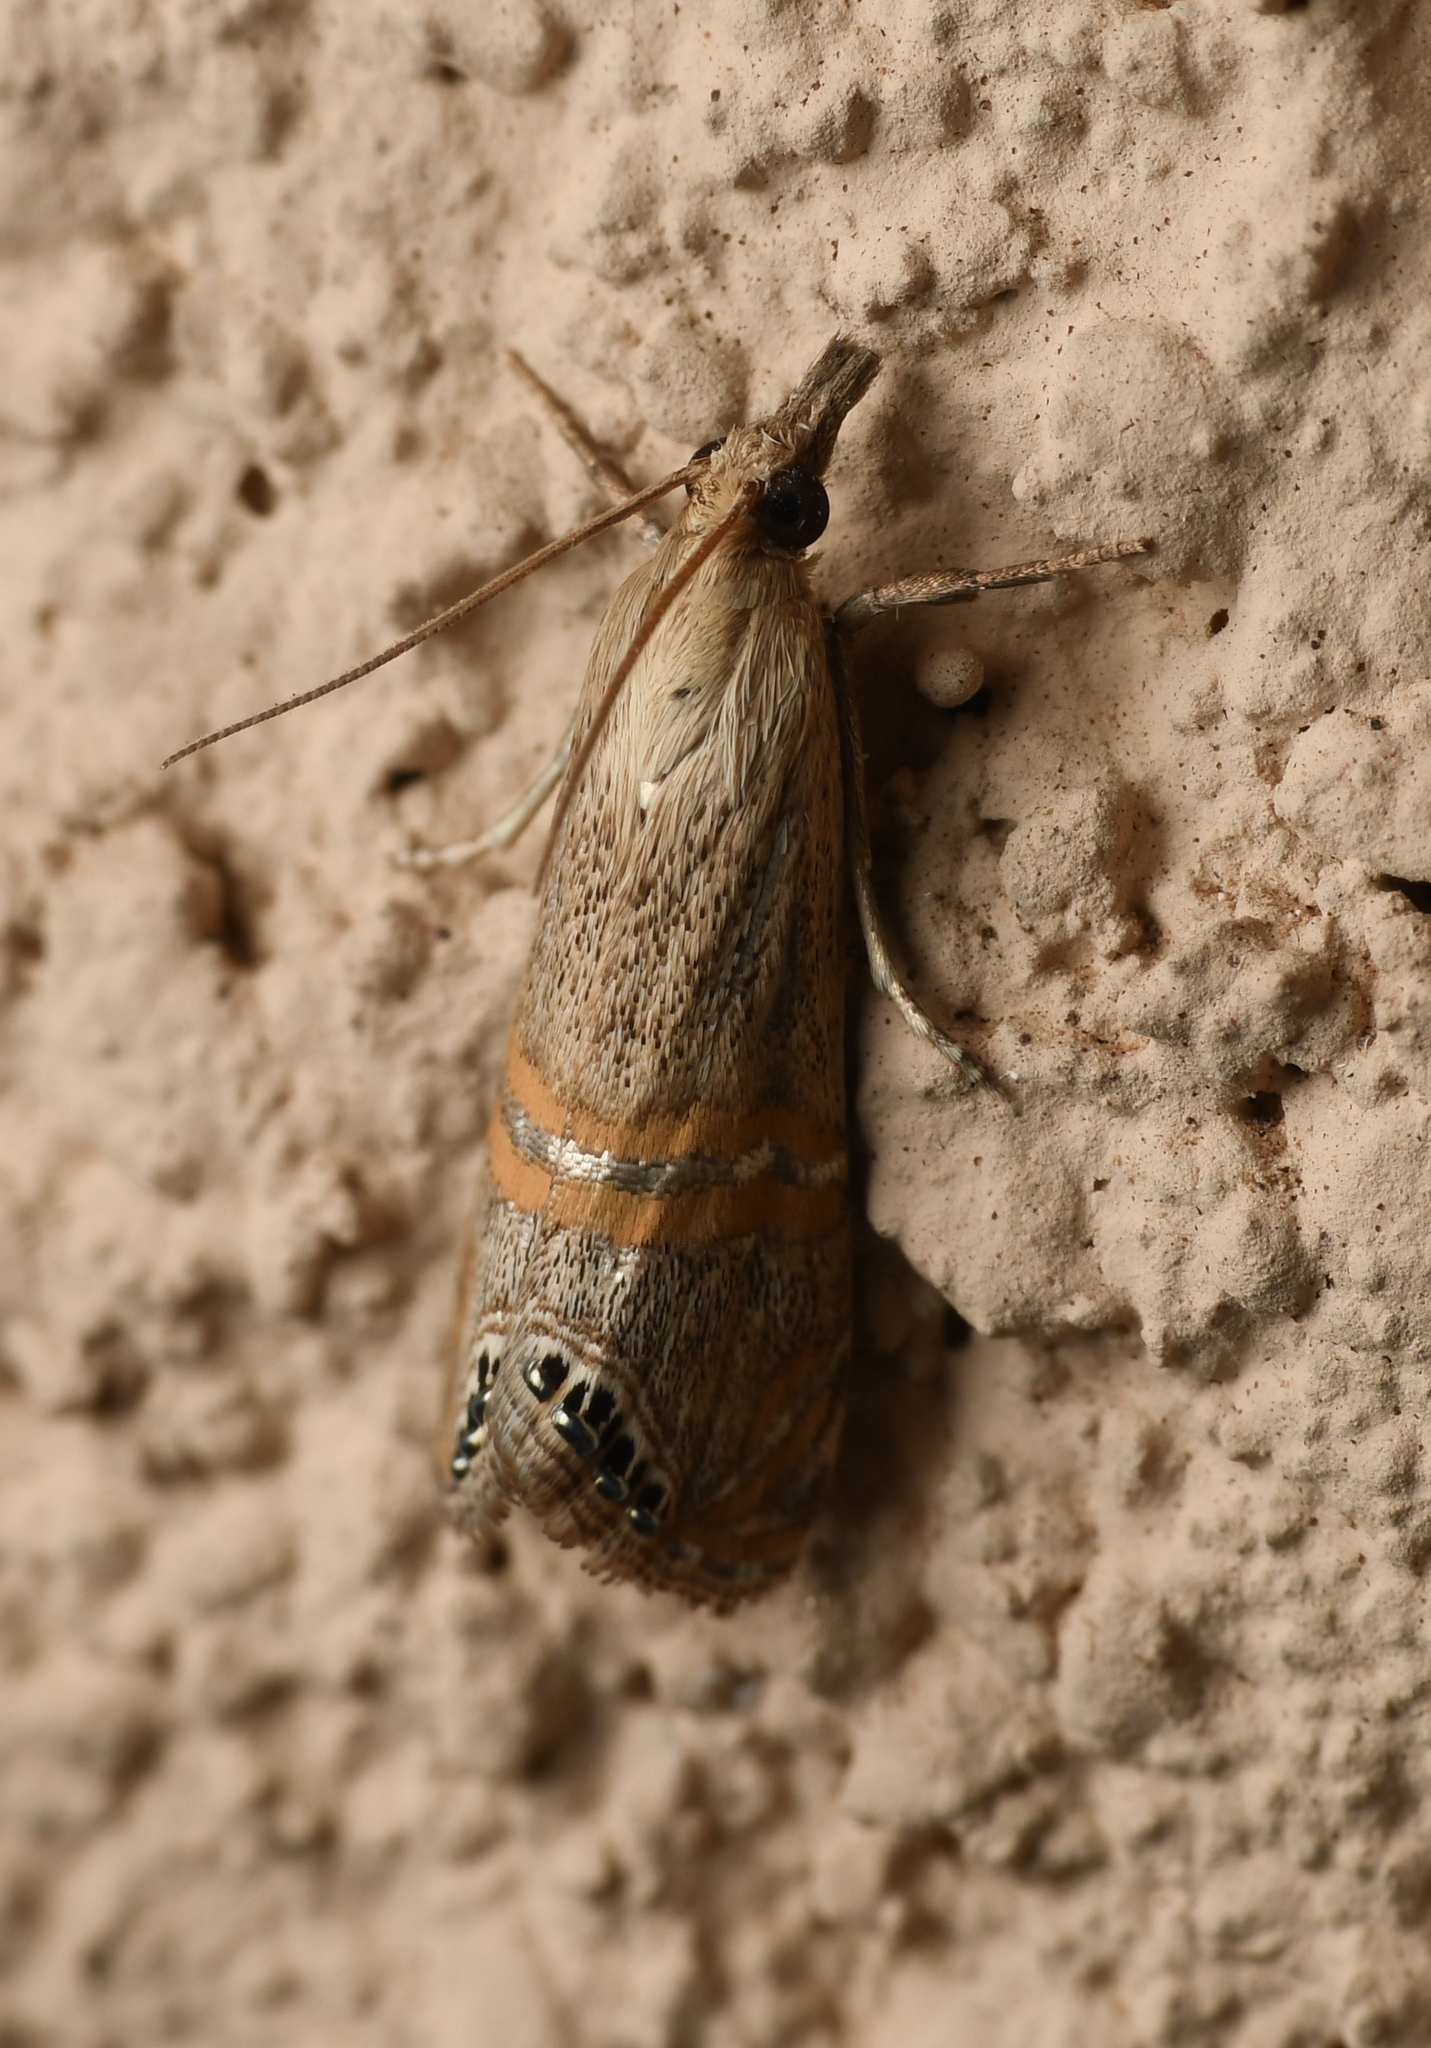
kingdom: Animalia
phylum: Arthropoda
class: Insecta
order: Lepidoptera
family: Crambidae
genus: Euchromius
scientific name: Euchromius ocellea
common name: Necklace veneer moth
